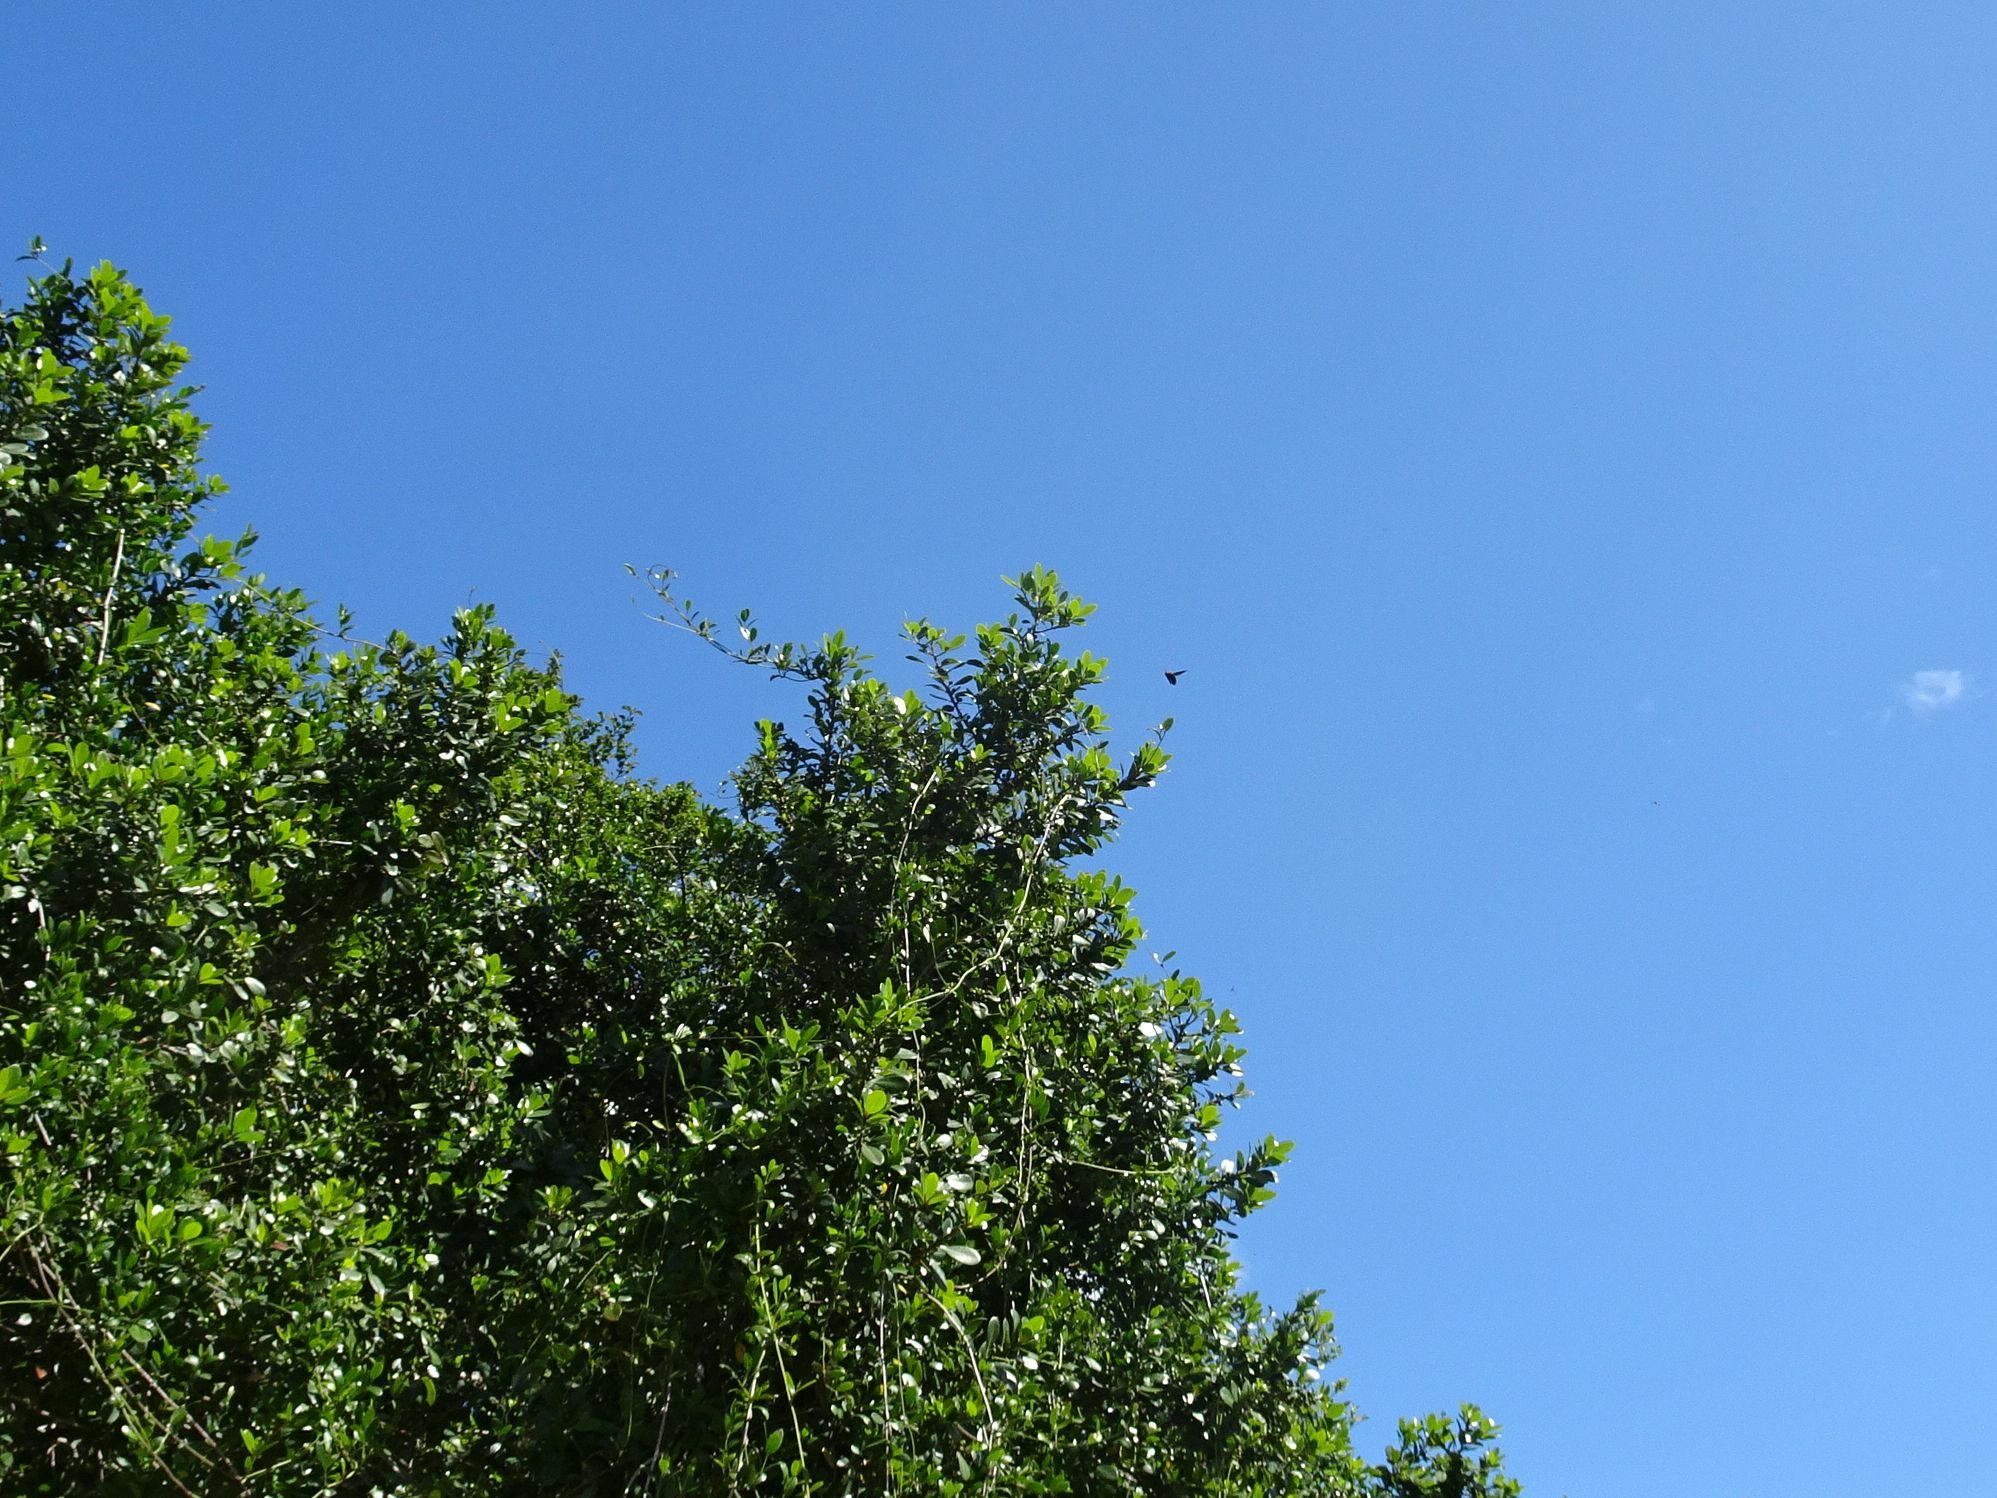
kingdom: Animalia
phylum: Arthropoda
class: Insecta
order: Hymenoptera
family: Apidae
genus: Xylocopa
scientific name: Xylocopa flavorufa
